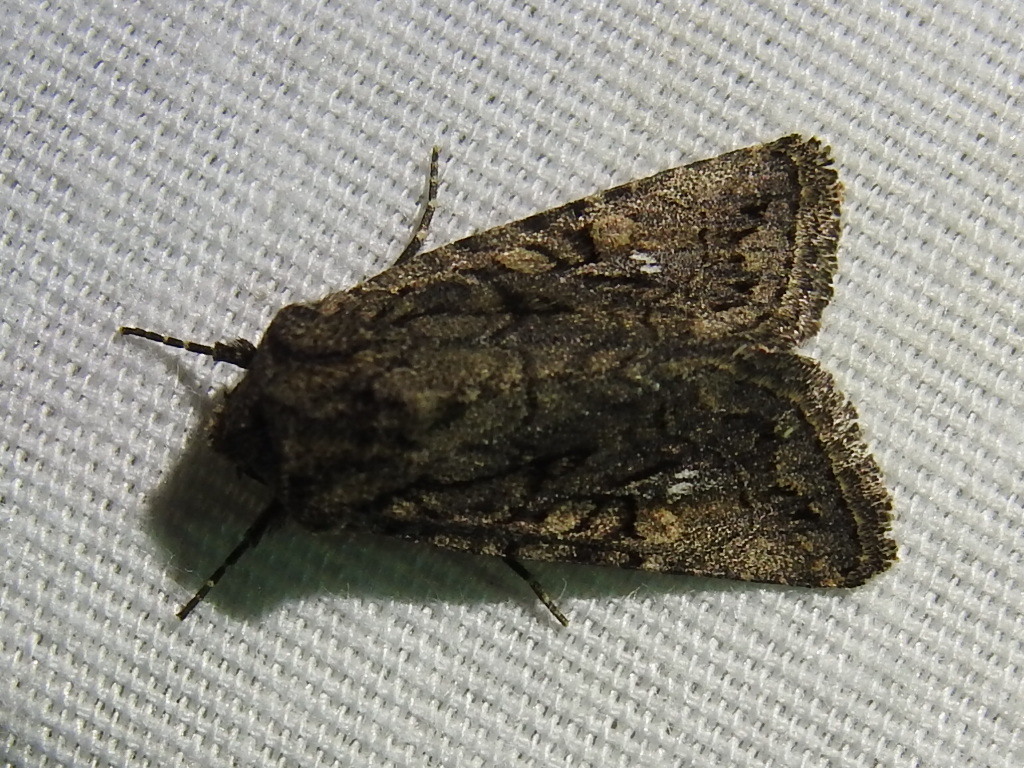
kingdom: Animalia
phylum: Arthropoda
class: Insecta
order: Lepidoptera
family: Noctuidae
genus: Ulolonche
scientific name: Ulolonche orbiculata
